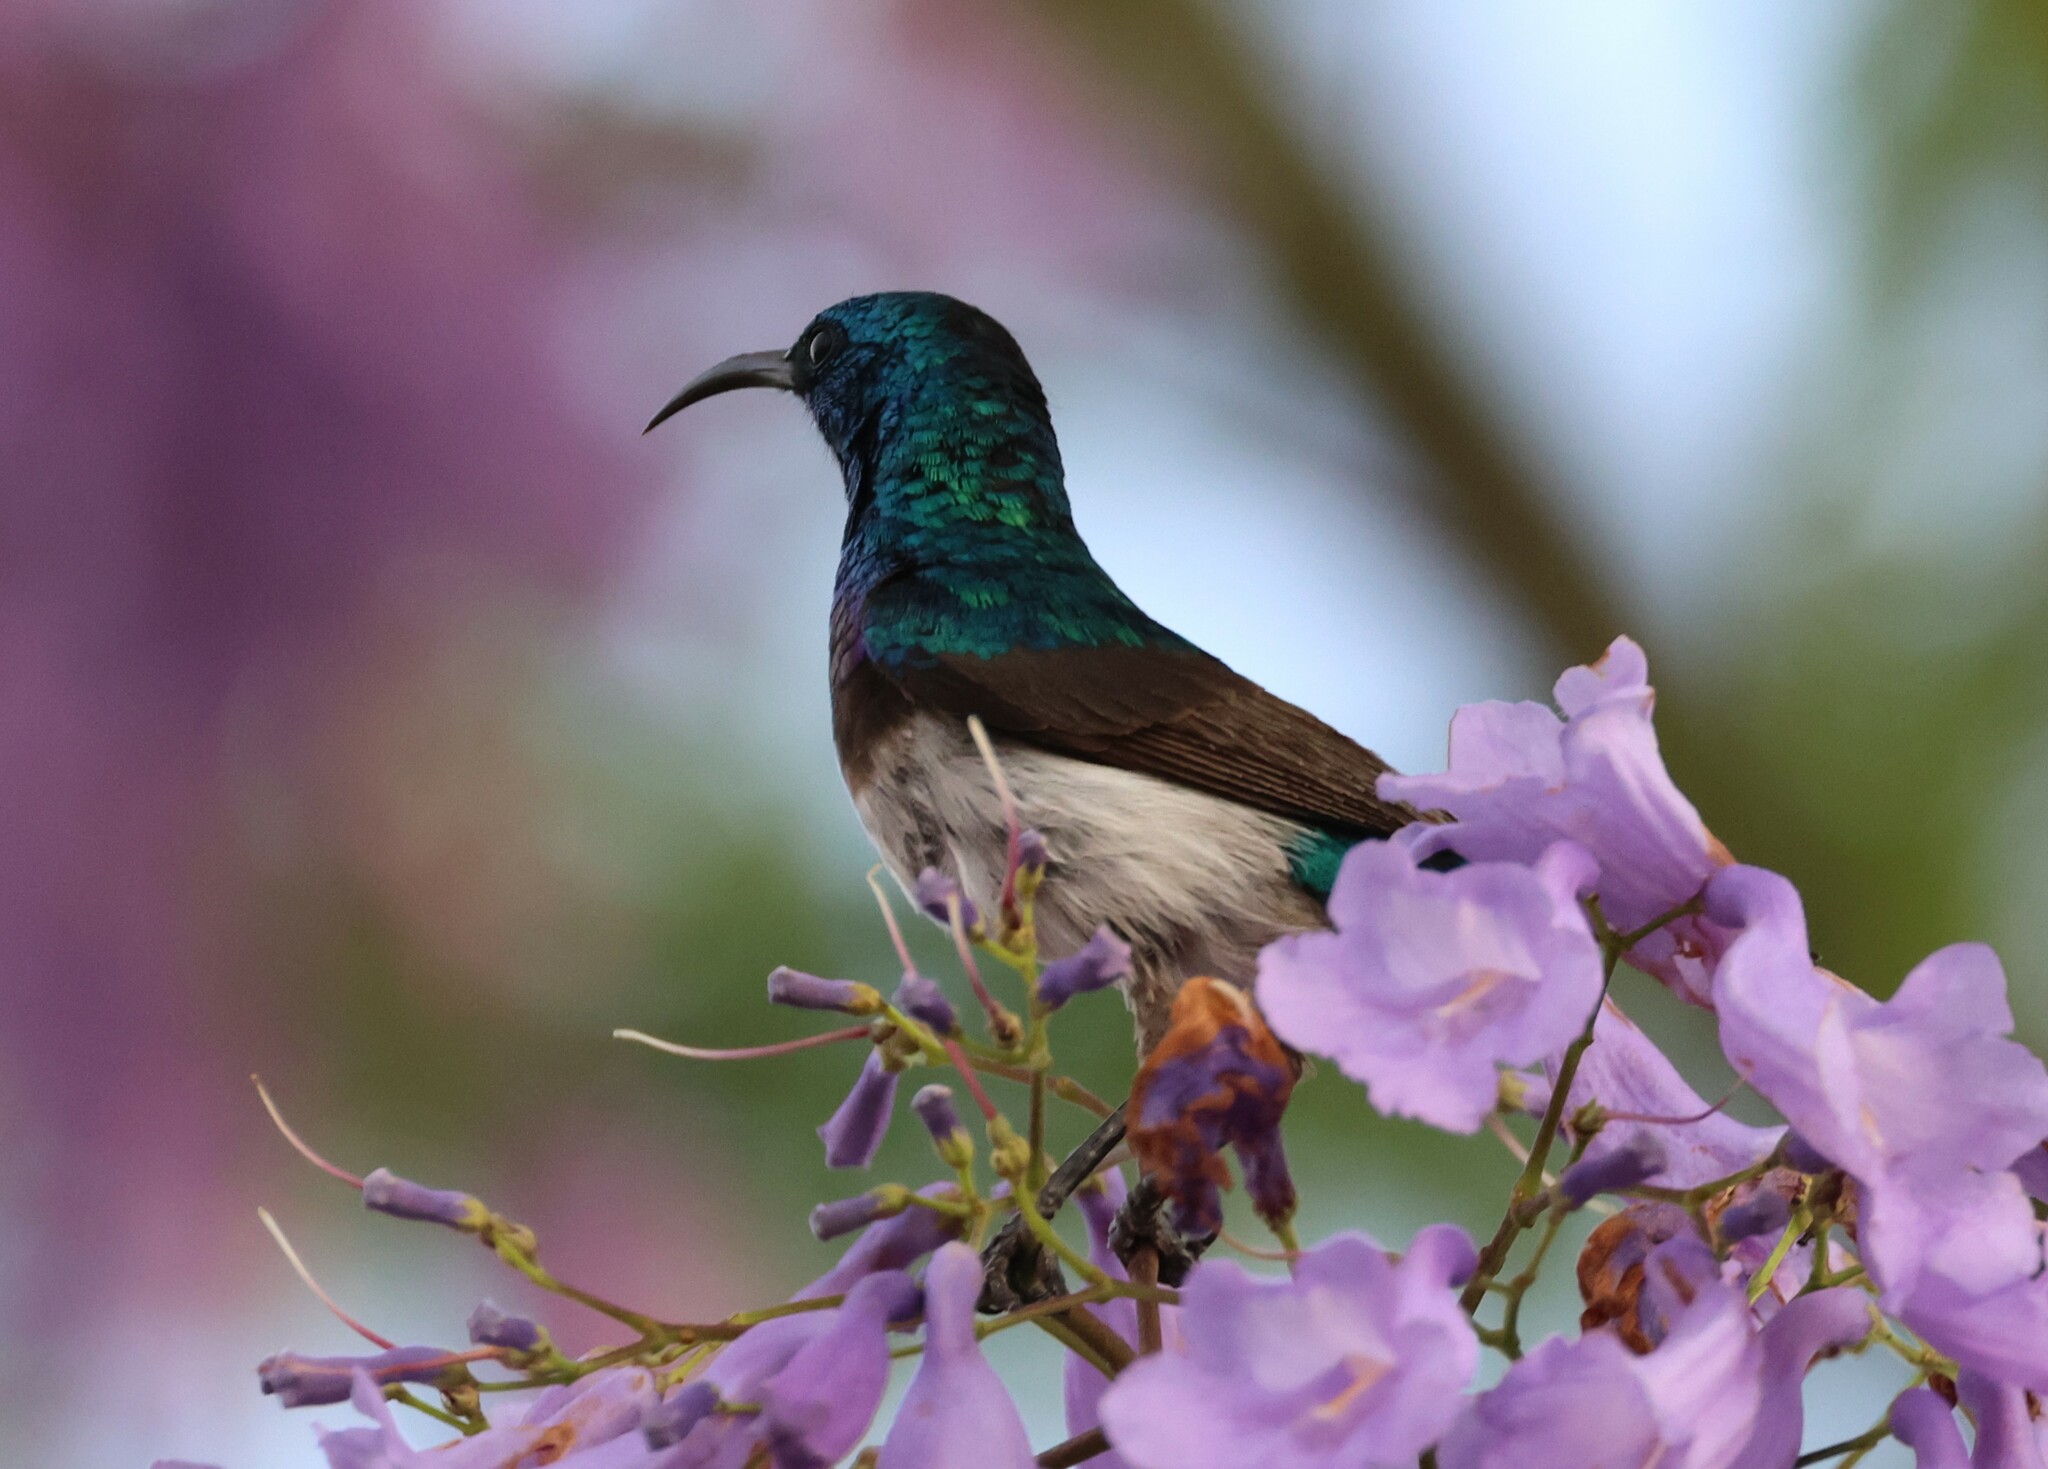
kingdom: Animalia
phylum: Chordata
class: Aves
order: Passeriformes
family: Nectariniidae
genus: Cinnyris
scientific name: Cinnyris talatala
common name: White-bellied sunbird
